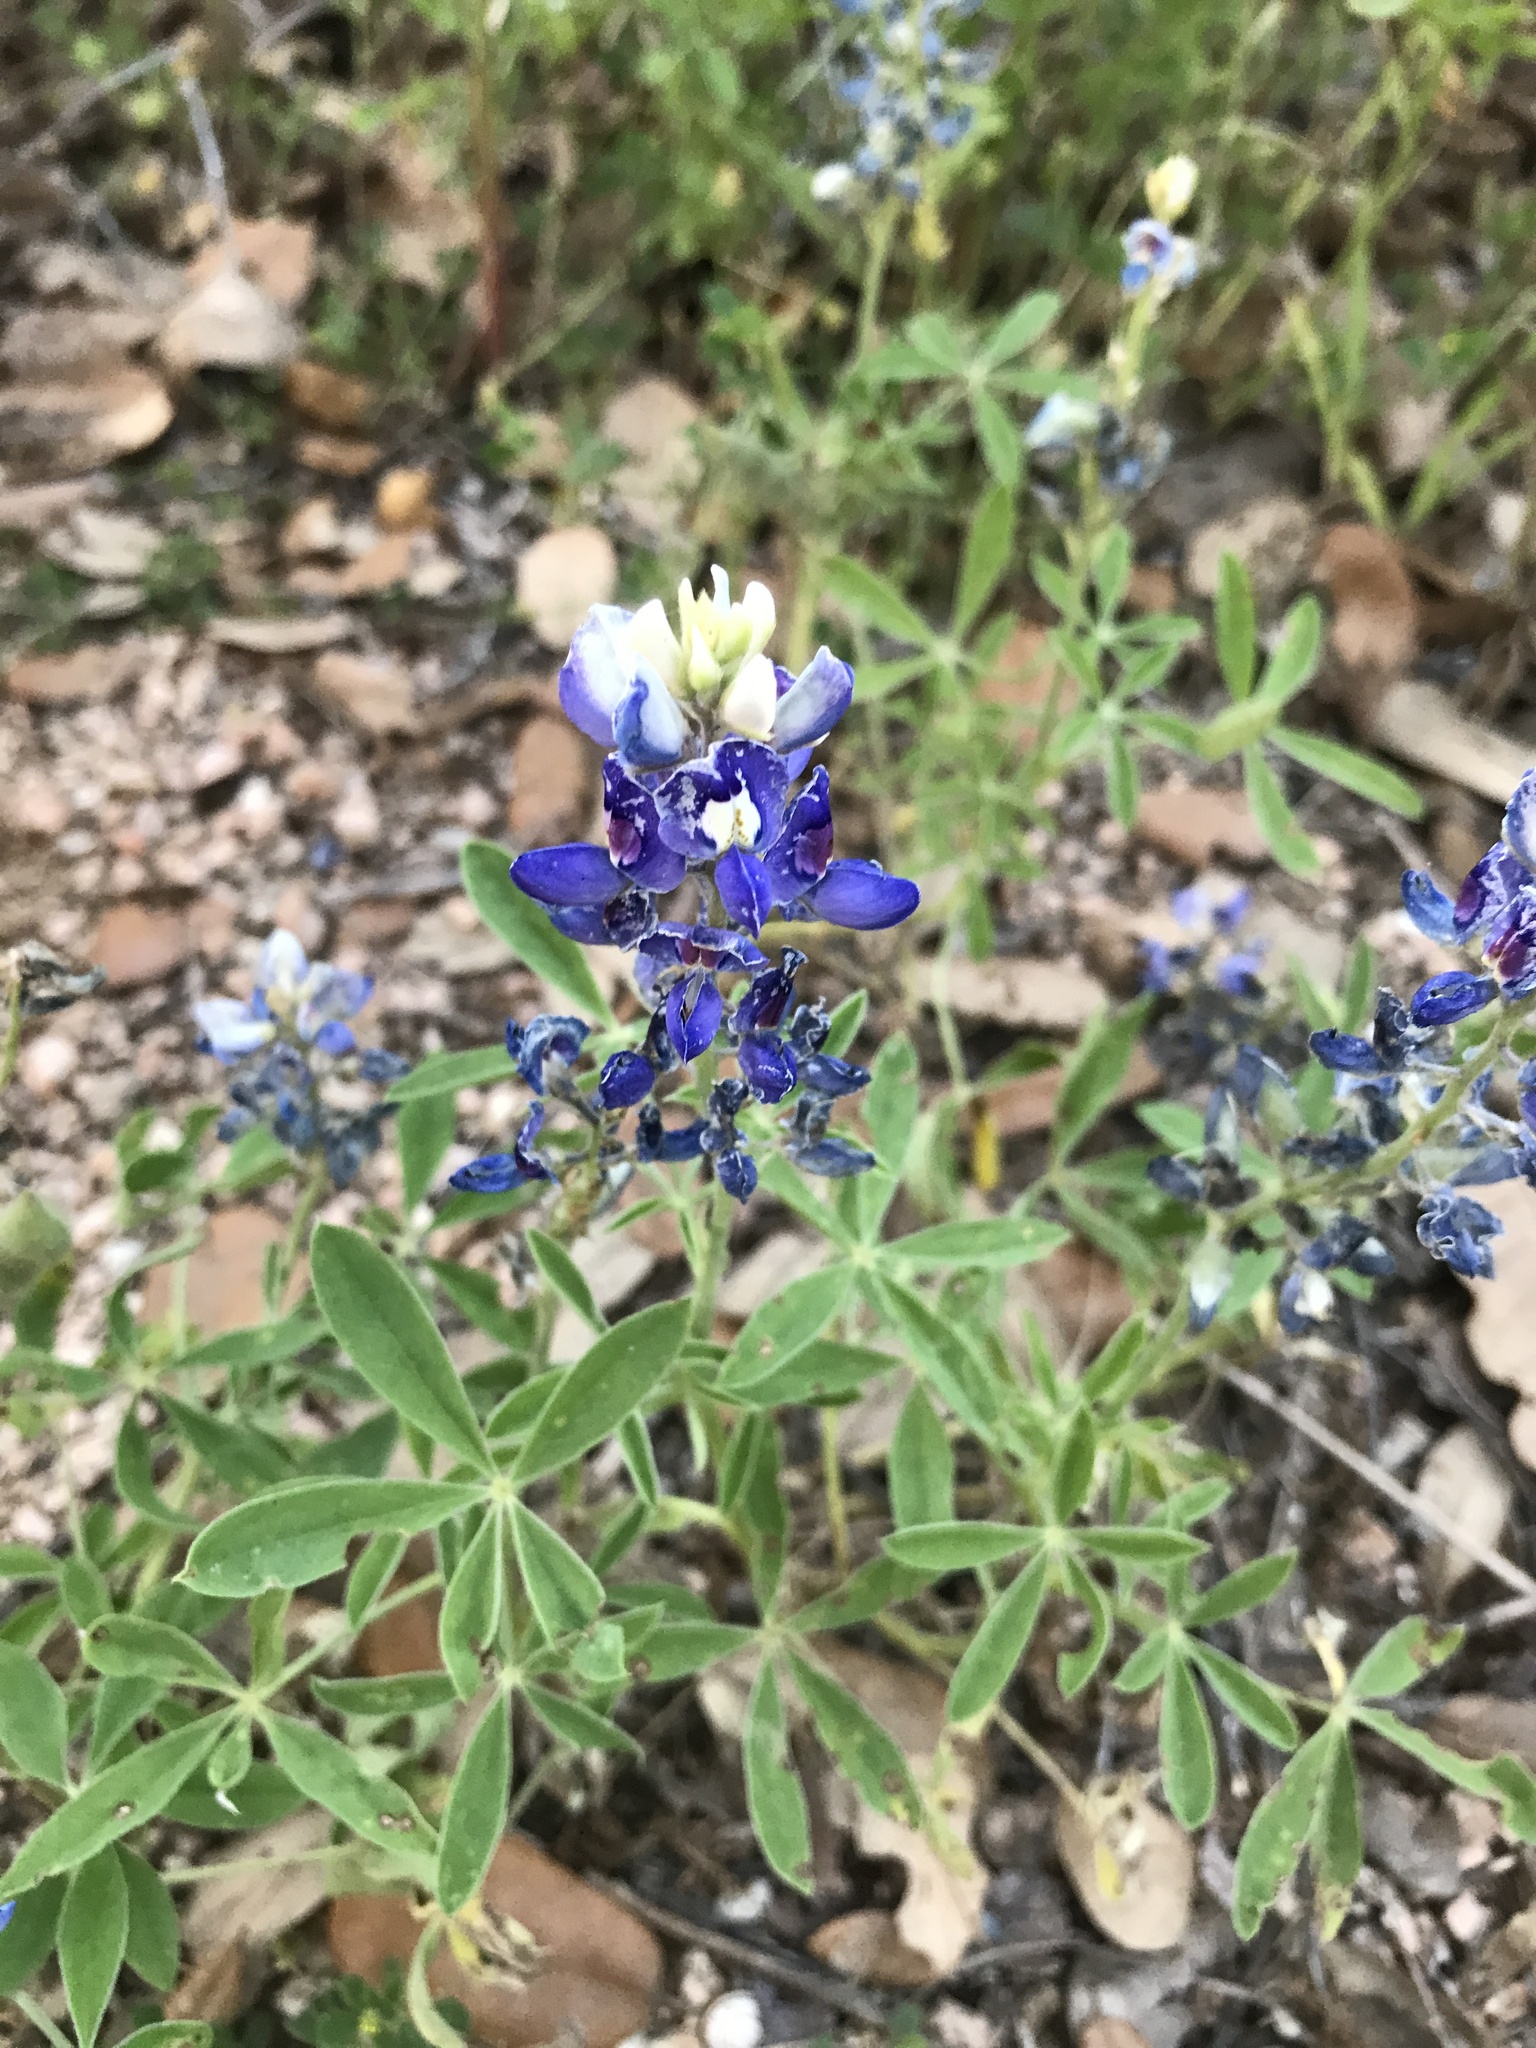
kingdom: Plantae
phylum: Tracheophyta
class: Magnoliopsida
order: Fabales
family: Fabaceae
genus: Lupinus
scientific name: Lupinus texensis
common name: Texas bluebonnet
